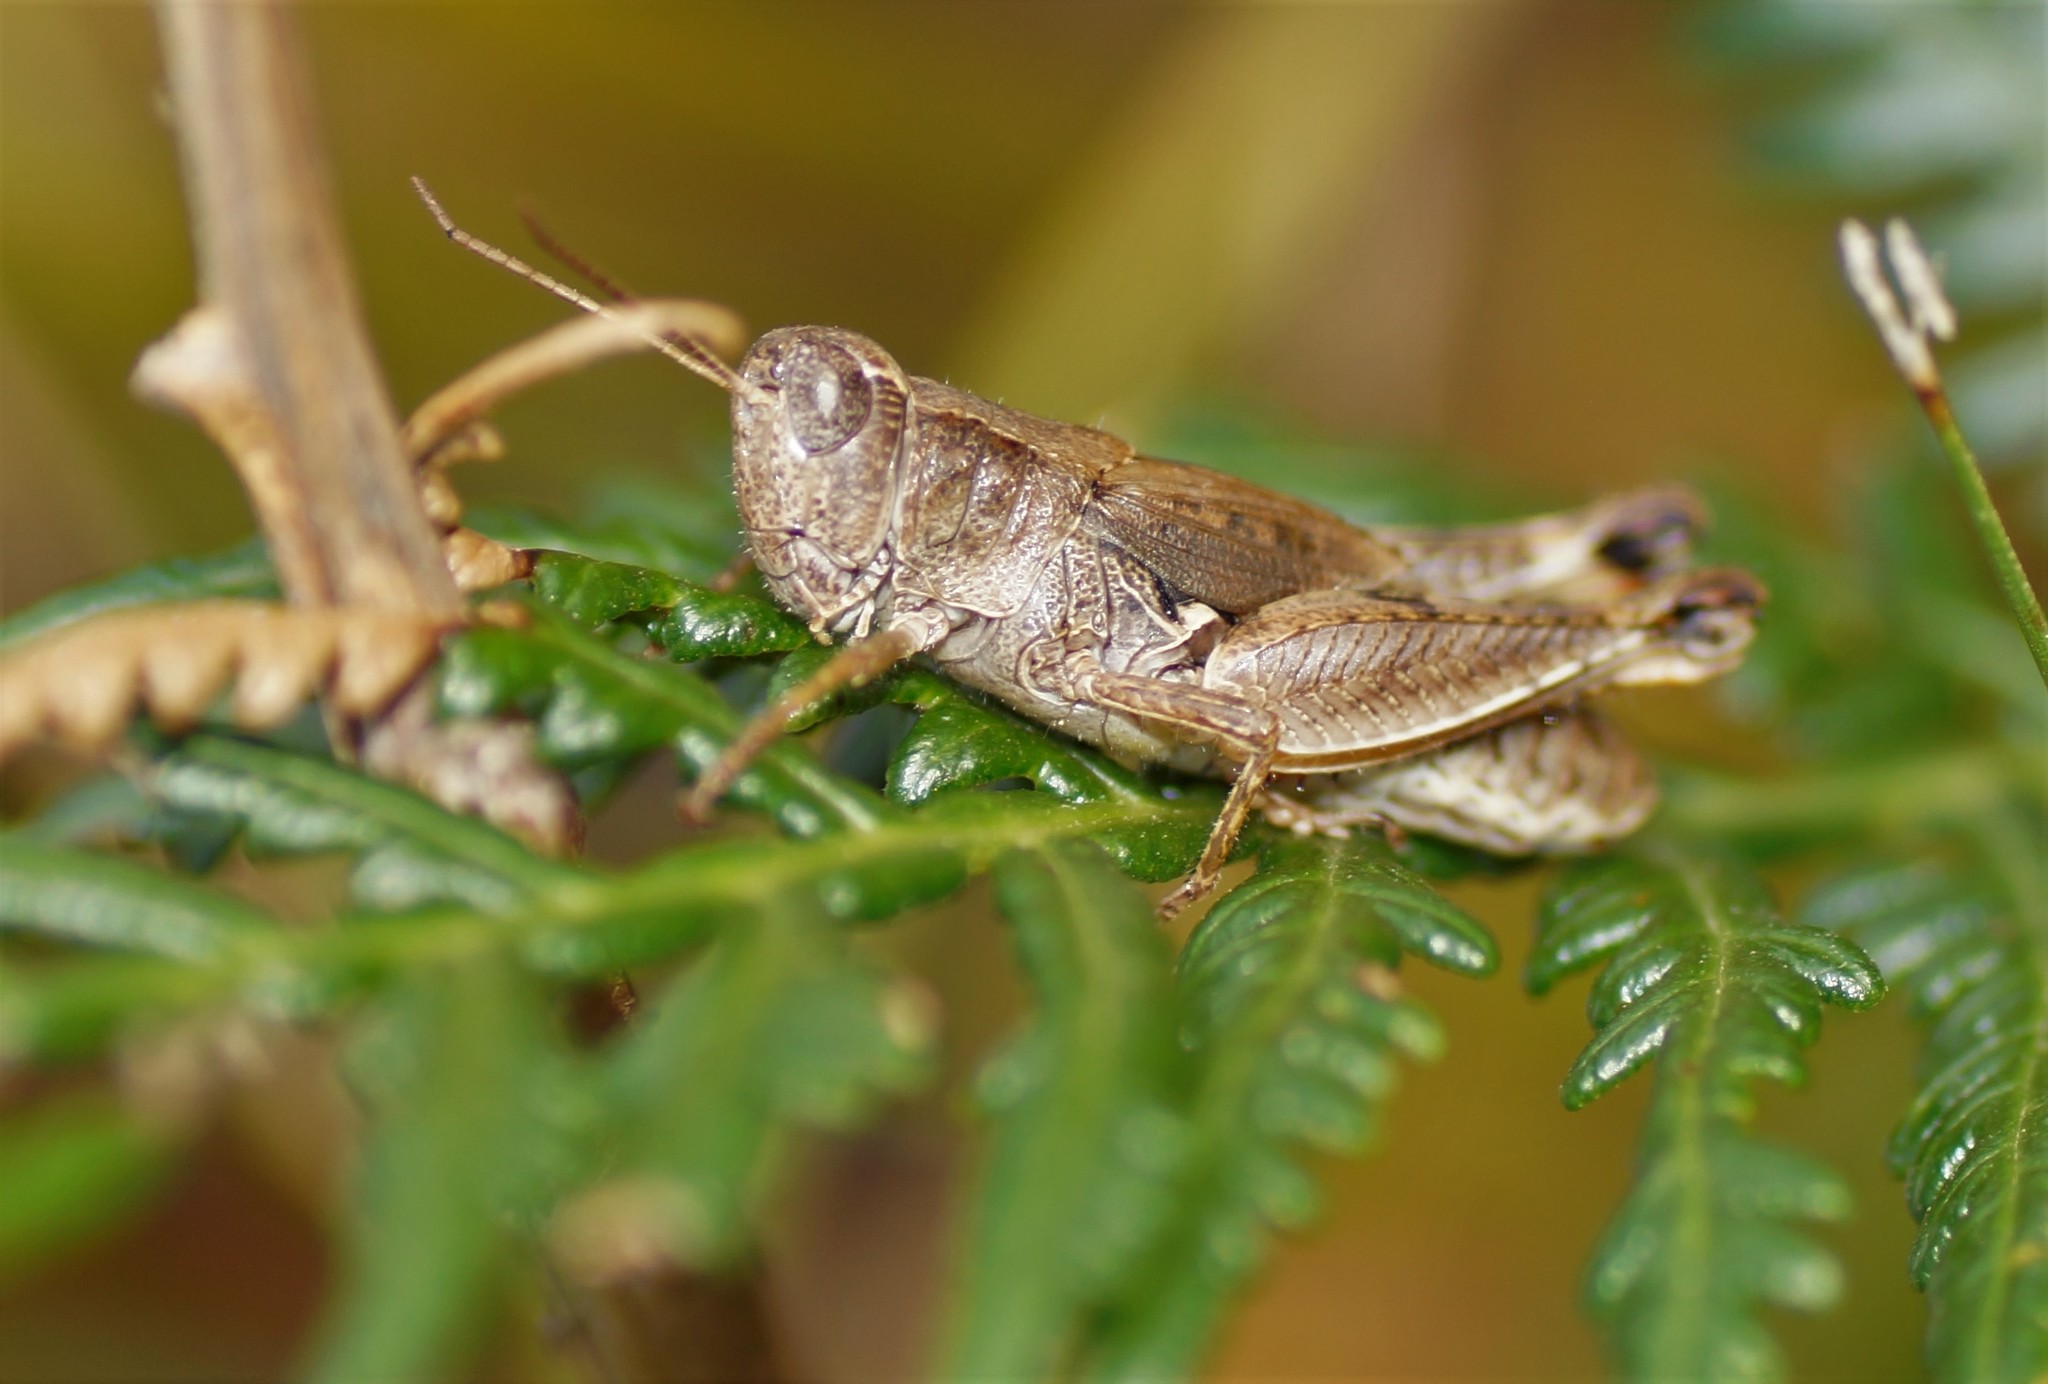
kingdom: Animalia
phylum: Arthropoda
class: Insecta
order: Orthoptera
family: Acrididae
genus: Phaulacridium
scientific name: Phaulacridium vittatum
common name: Wingless grasshopper
